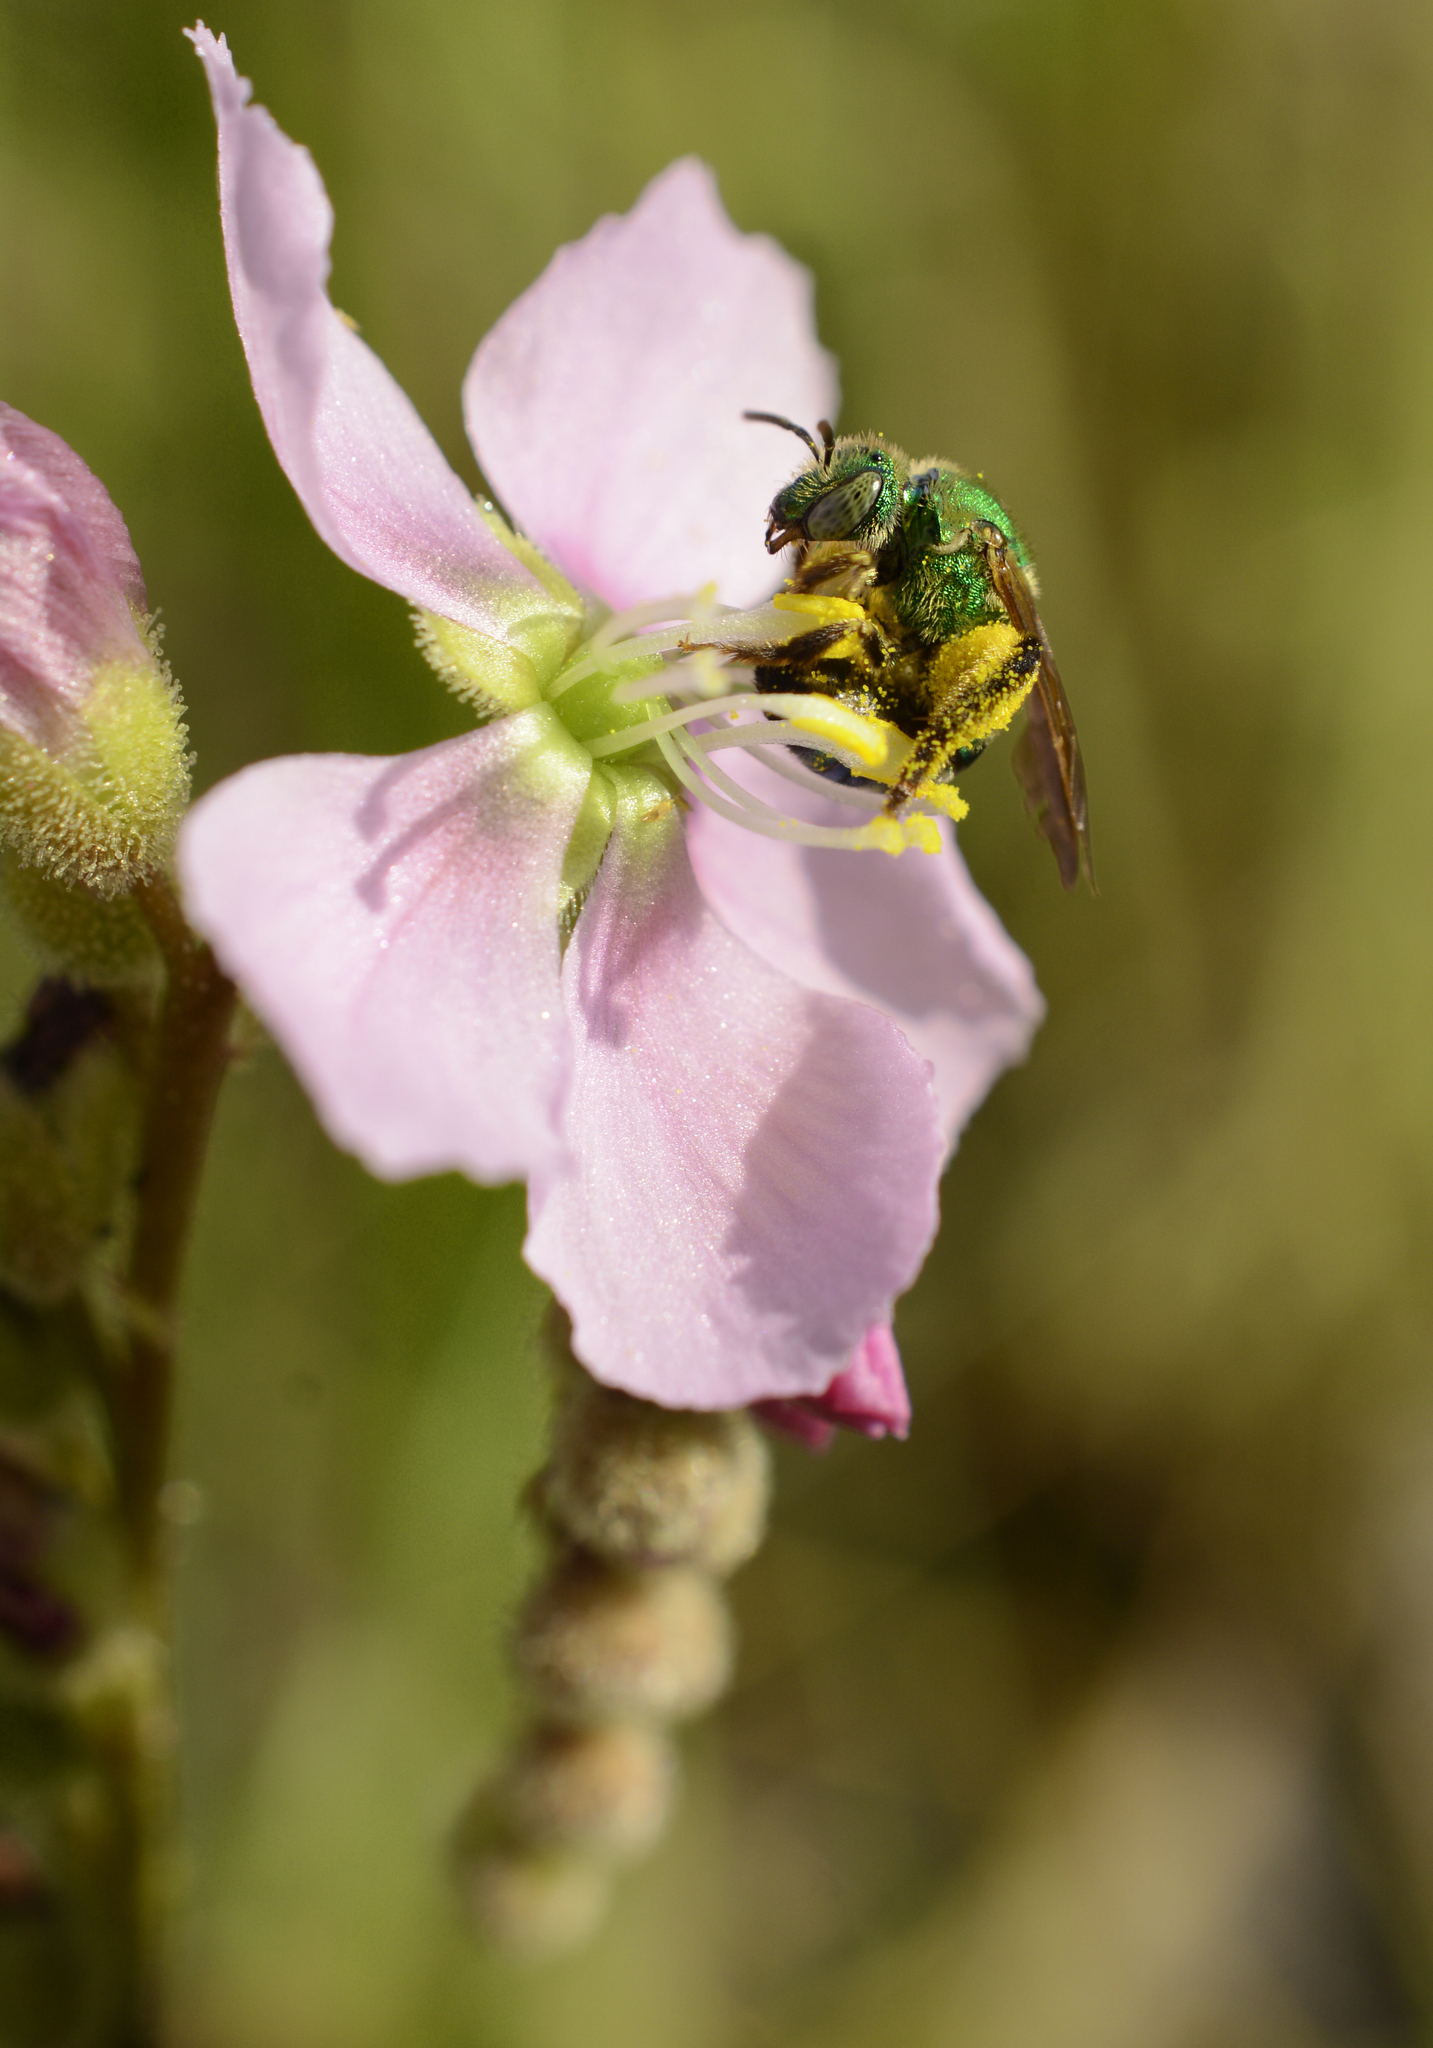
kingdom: Animalia
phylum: Arthropoda
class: Insecta
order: Hymenoptera
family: Halictidae
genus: Agapostemon
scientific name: Agapostemon splendens
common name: Brown-winged striped sweat bee
